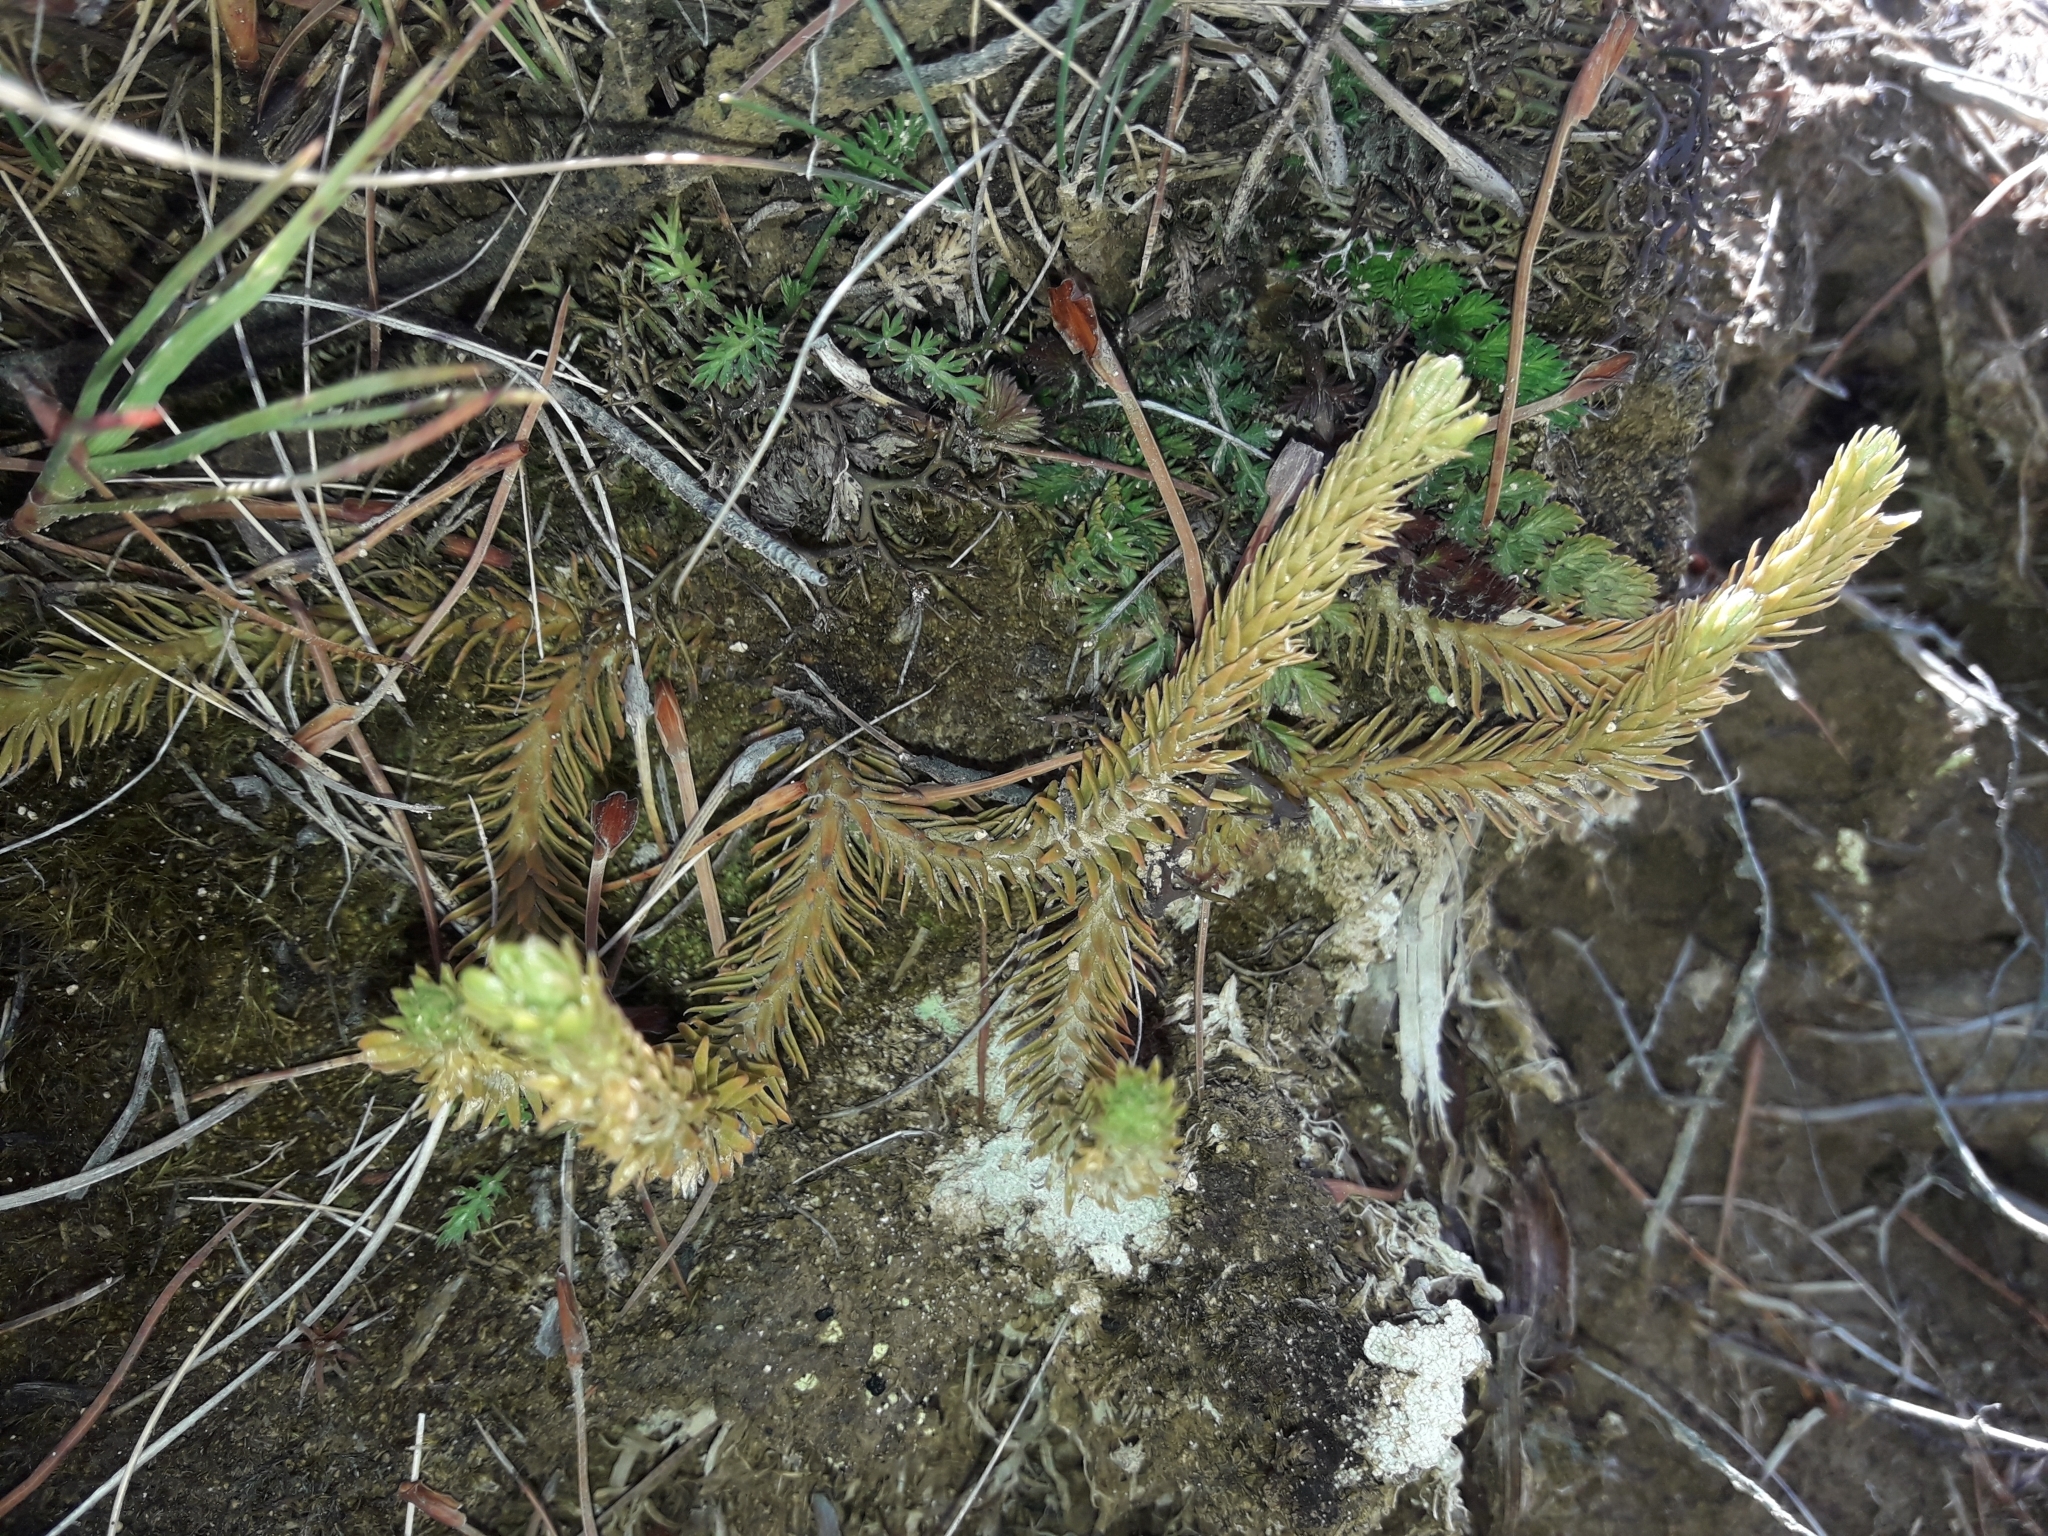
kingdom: Plantae
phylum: Tracheophyta
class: Lycopodiopsida
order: Lycopodiales
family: Lycopodiaceae
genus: Huperzia
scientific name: Huperzia australiana
